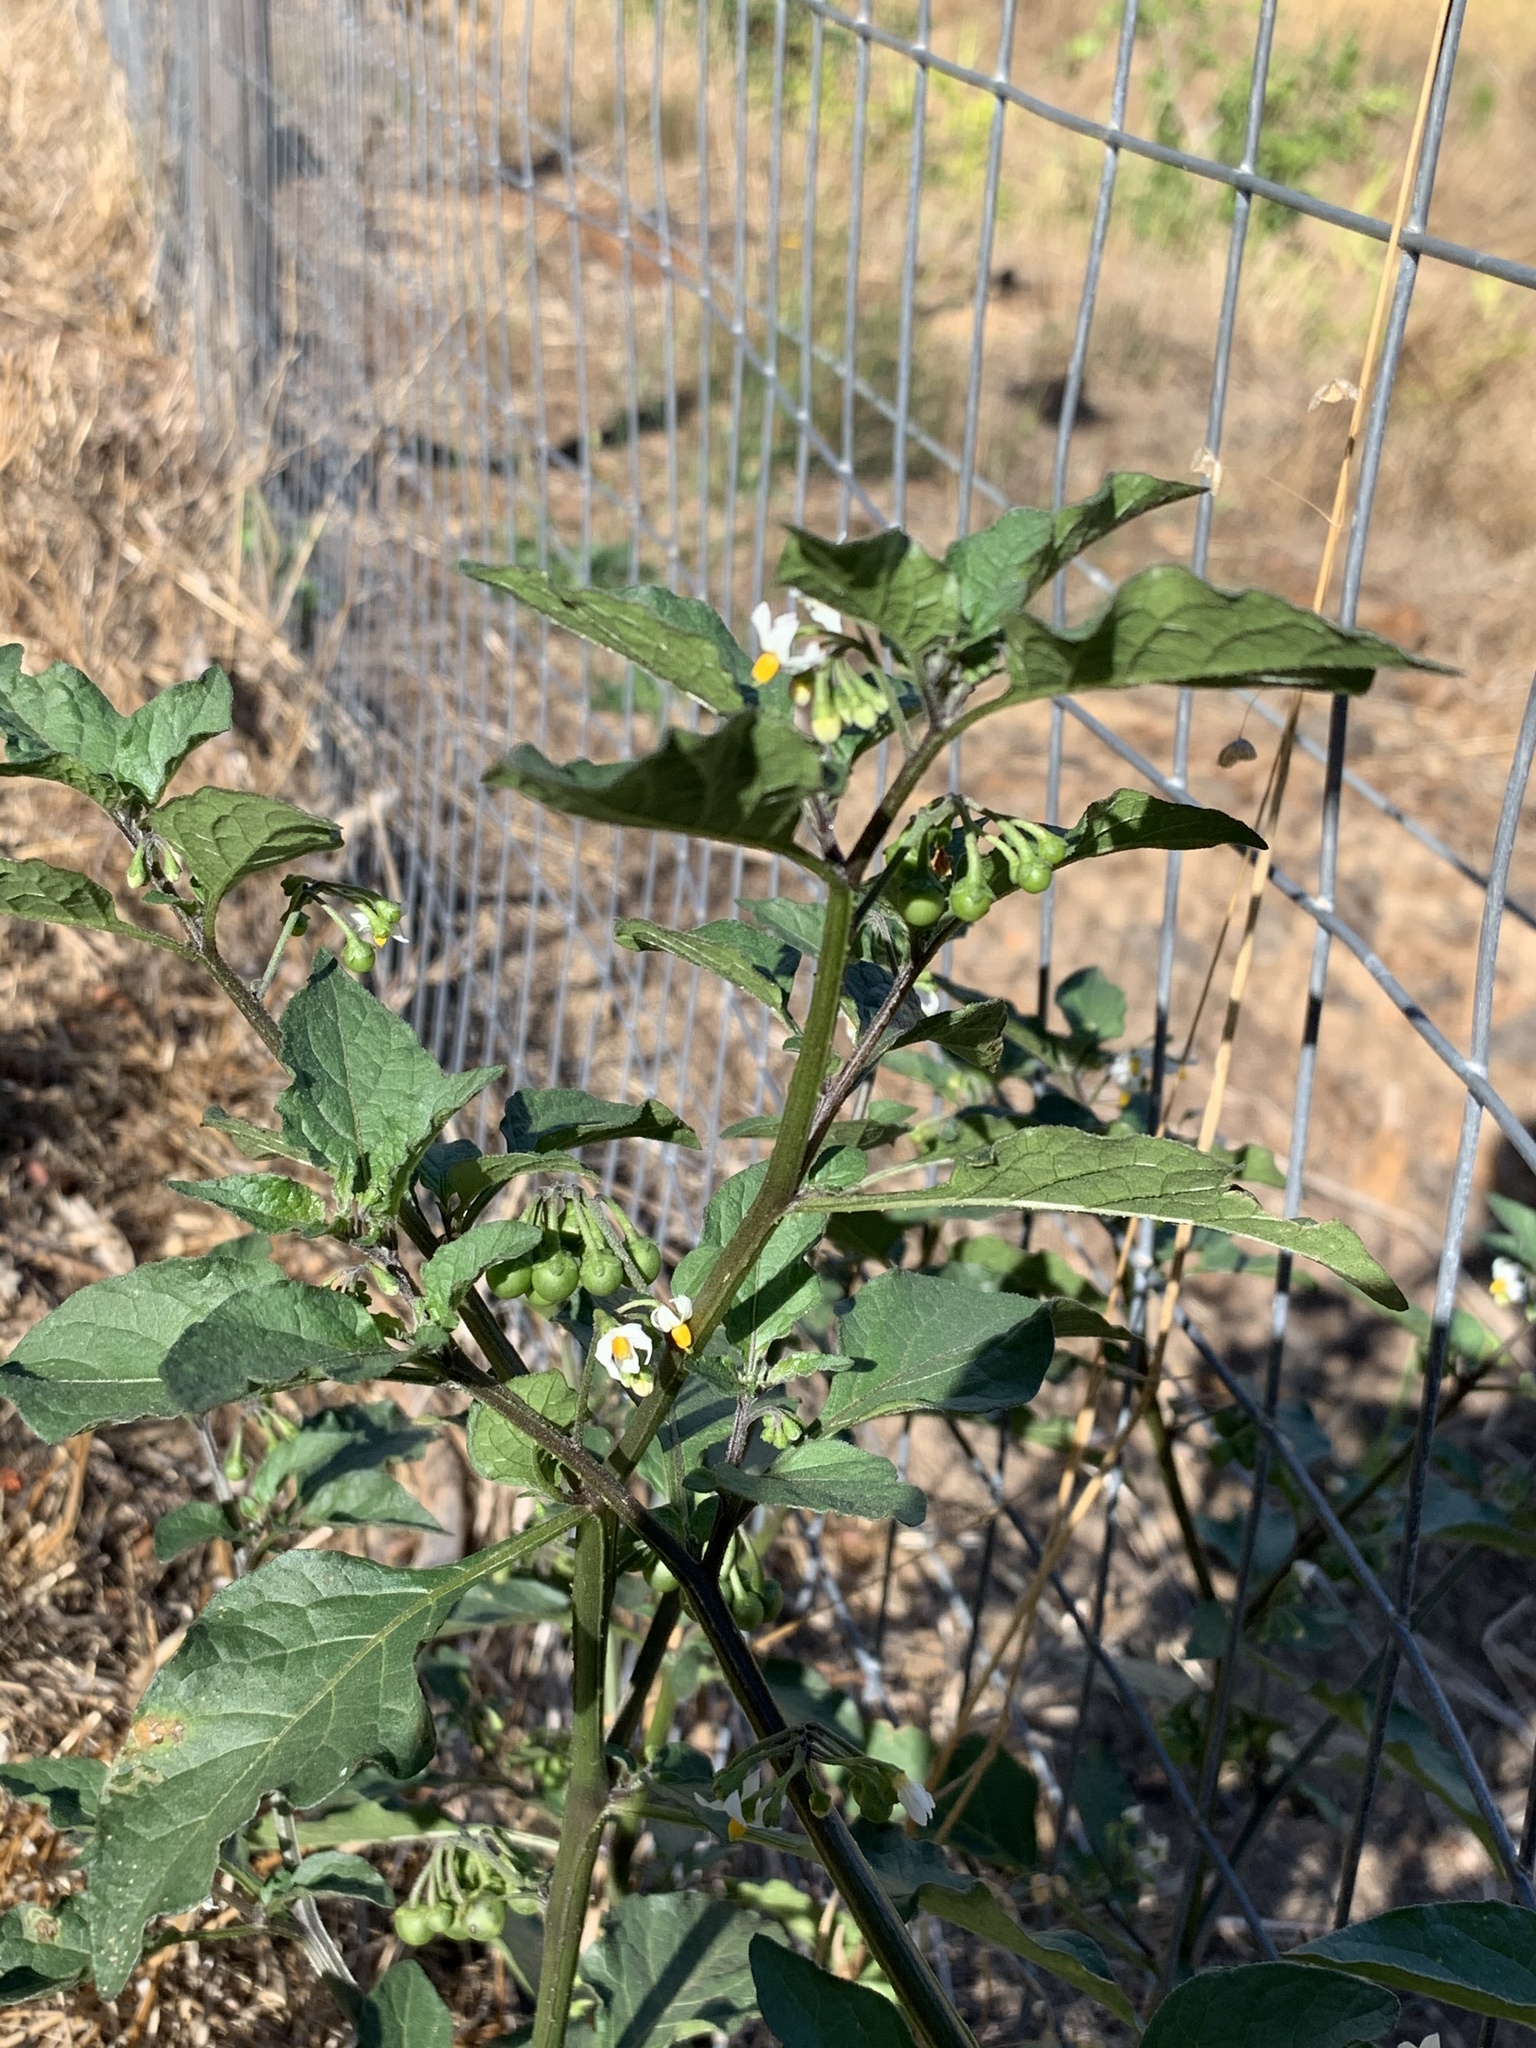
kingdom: Plantae
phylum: Tracheophyta
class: Magnoliopsida
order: Solanales
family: Solanaceae
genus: Solanum
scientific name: Solanum nigrum
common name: Black nightshade
